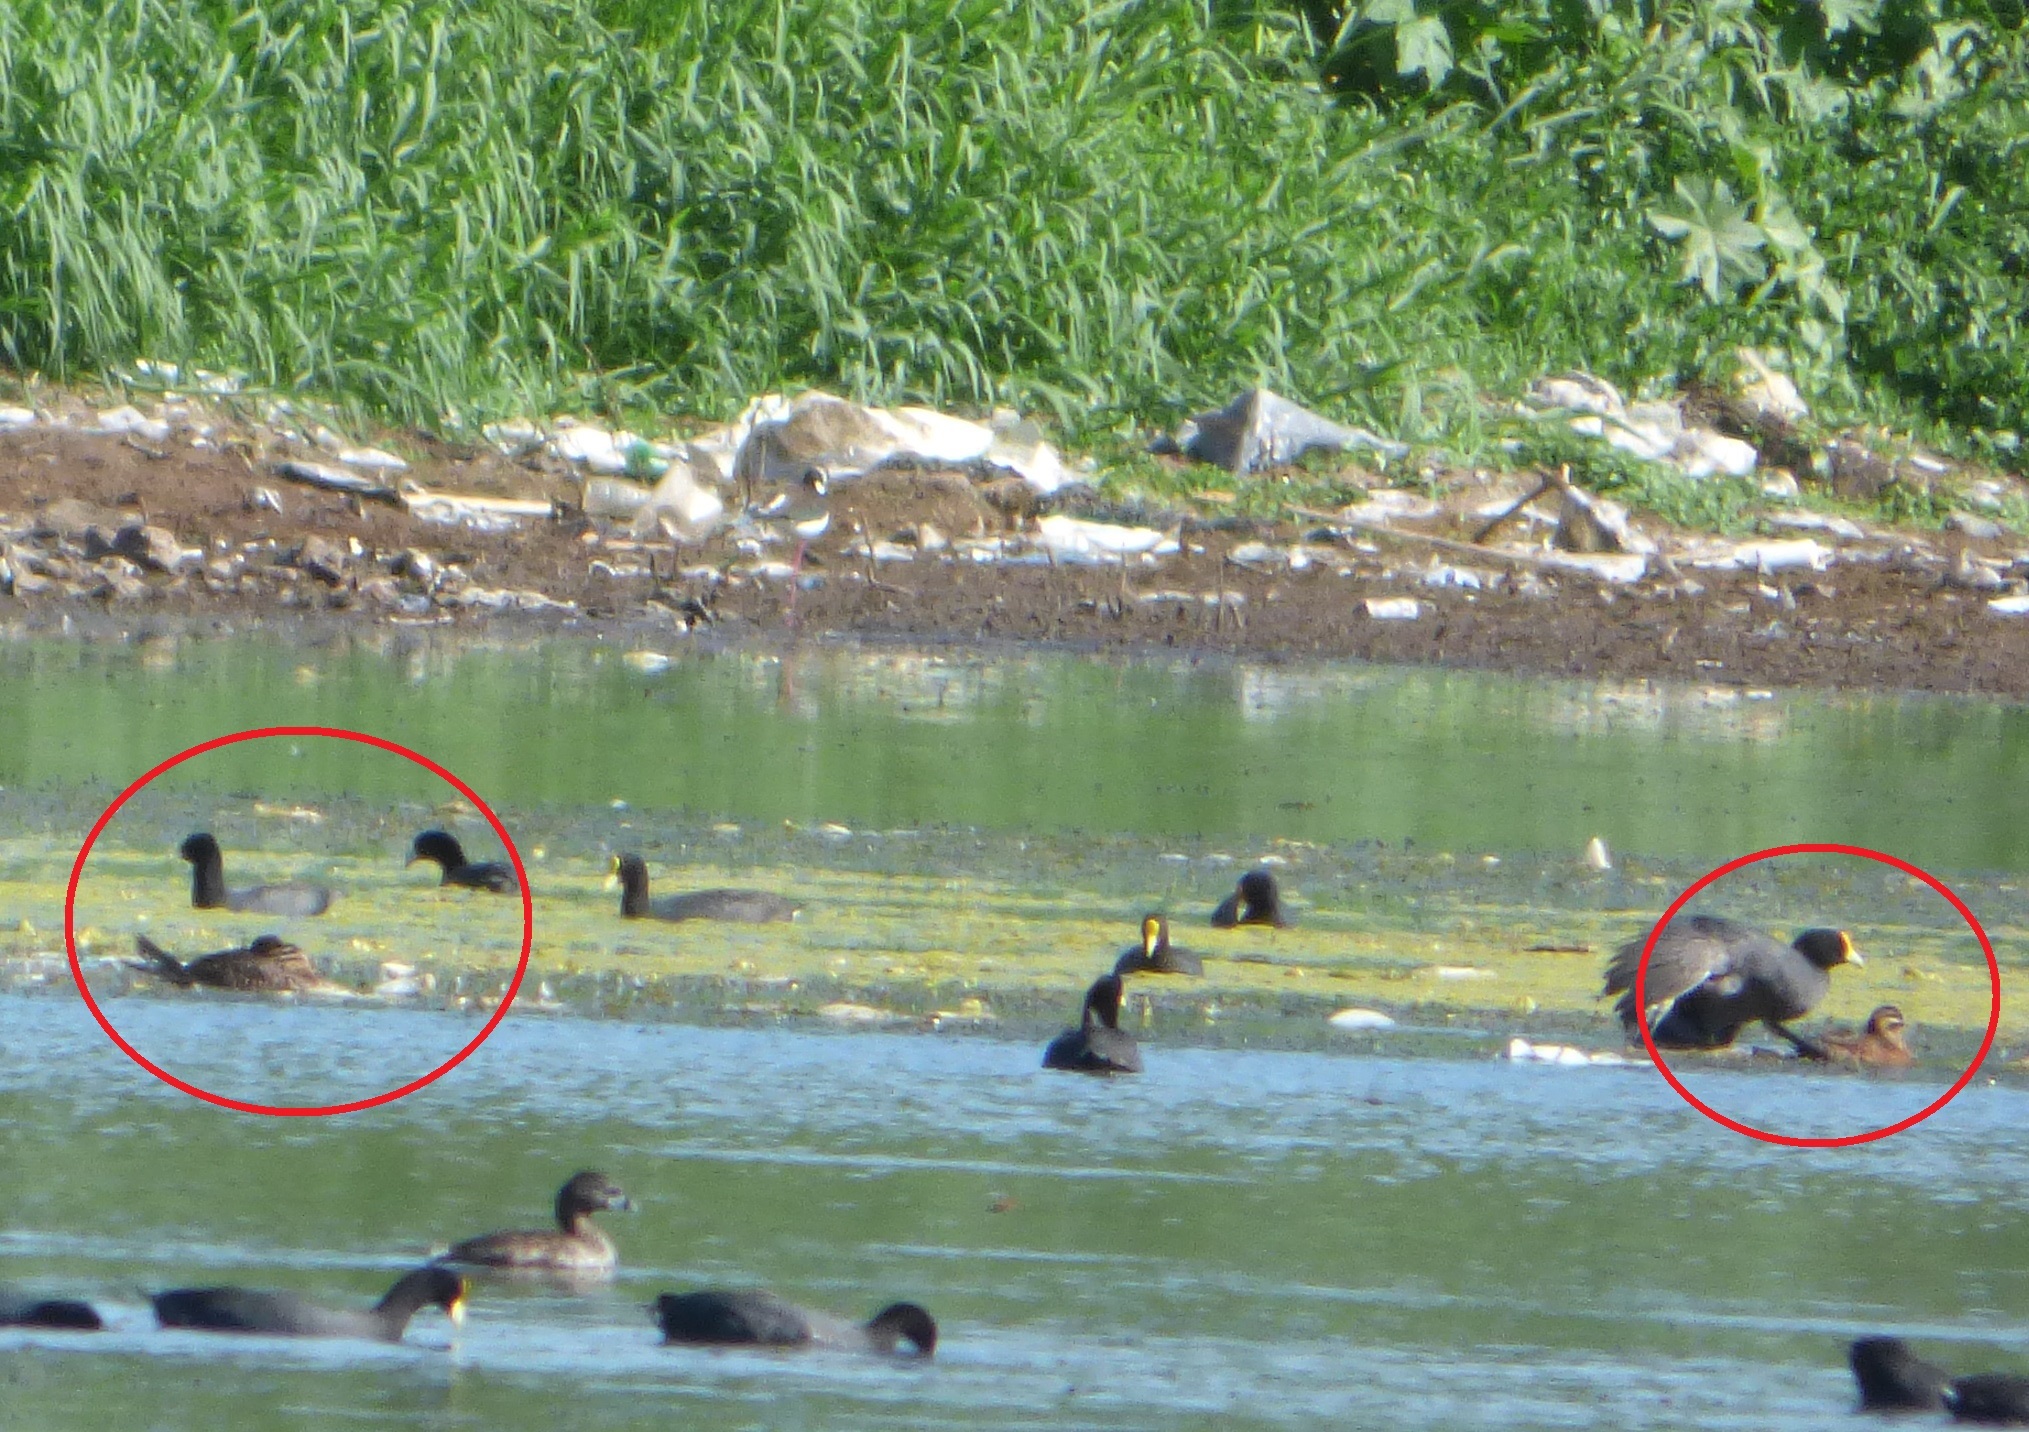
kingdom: Animalia
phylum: Chordata
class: Aves
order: Anseriformes
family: Anatidae
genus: Nomonyx
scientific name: Nomonyx dominicus
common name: Masked duck
